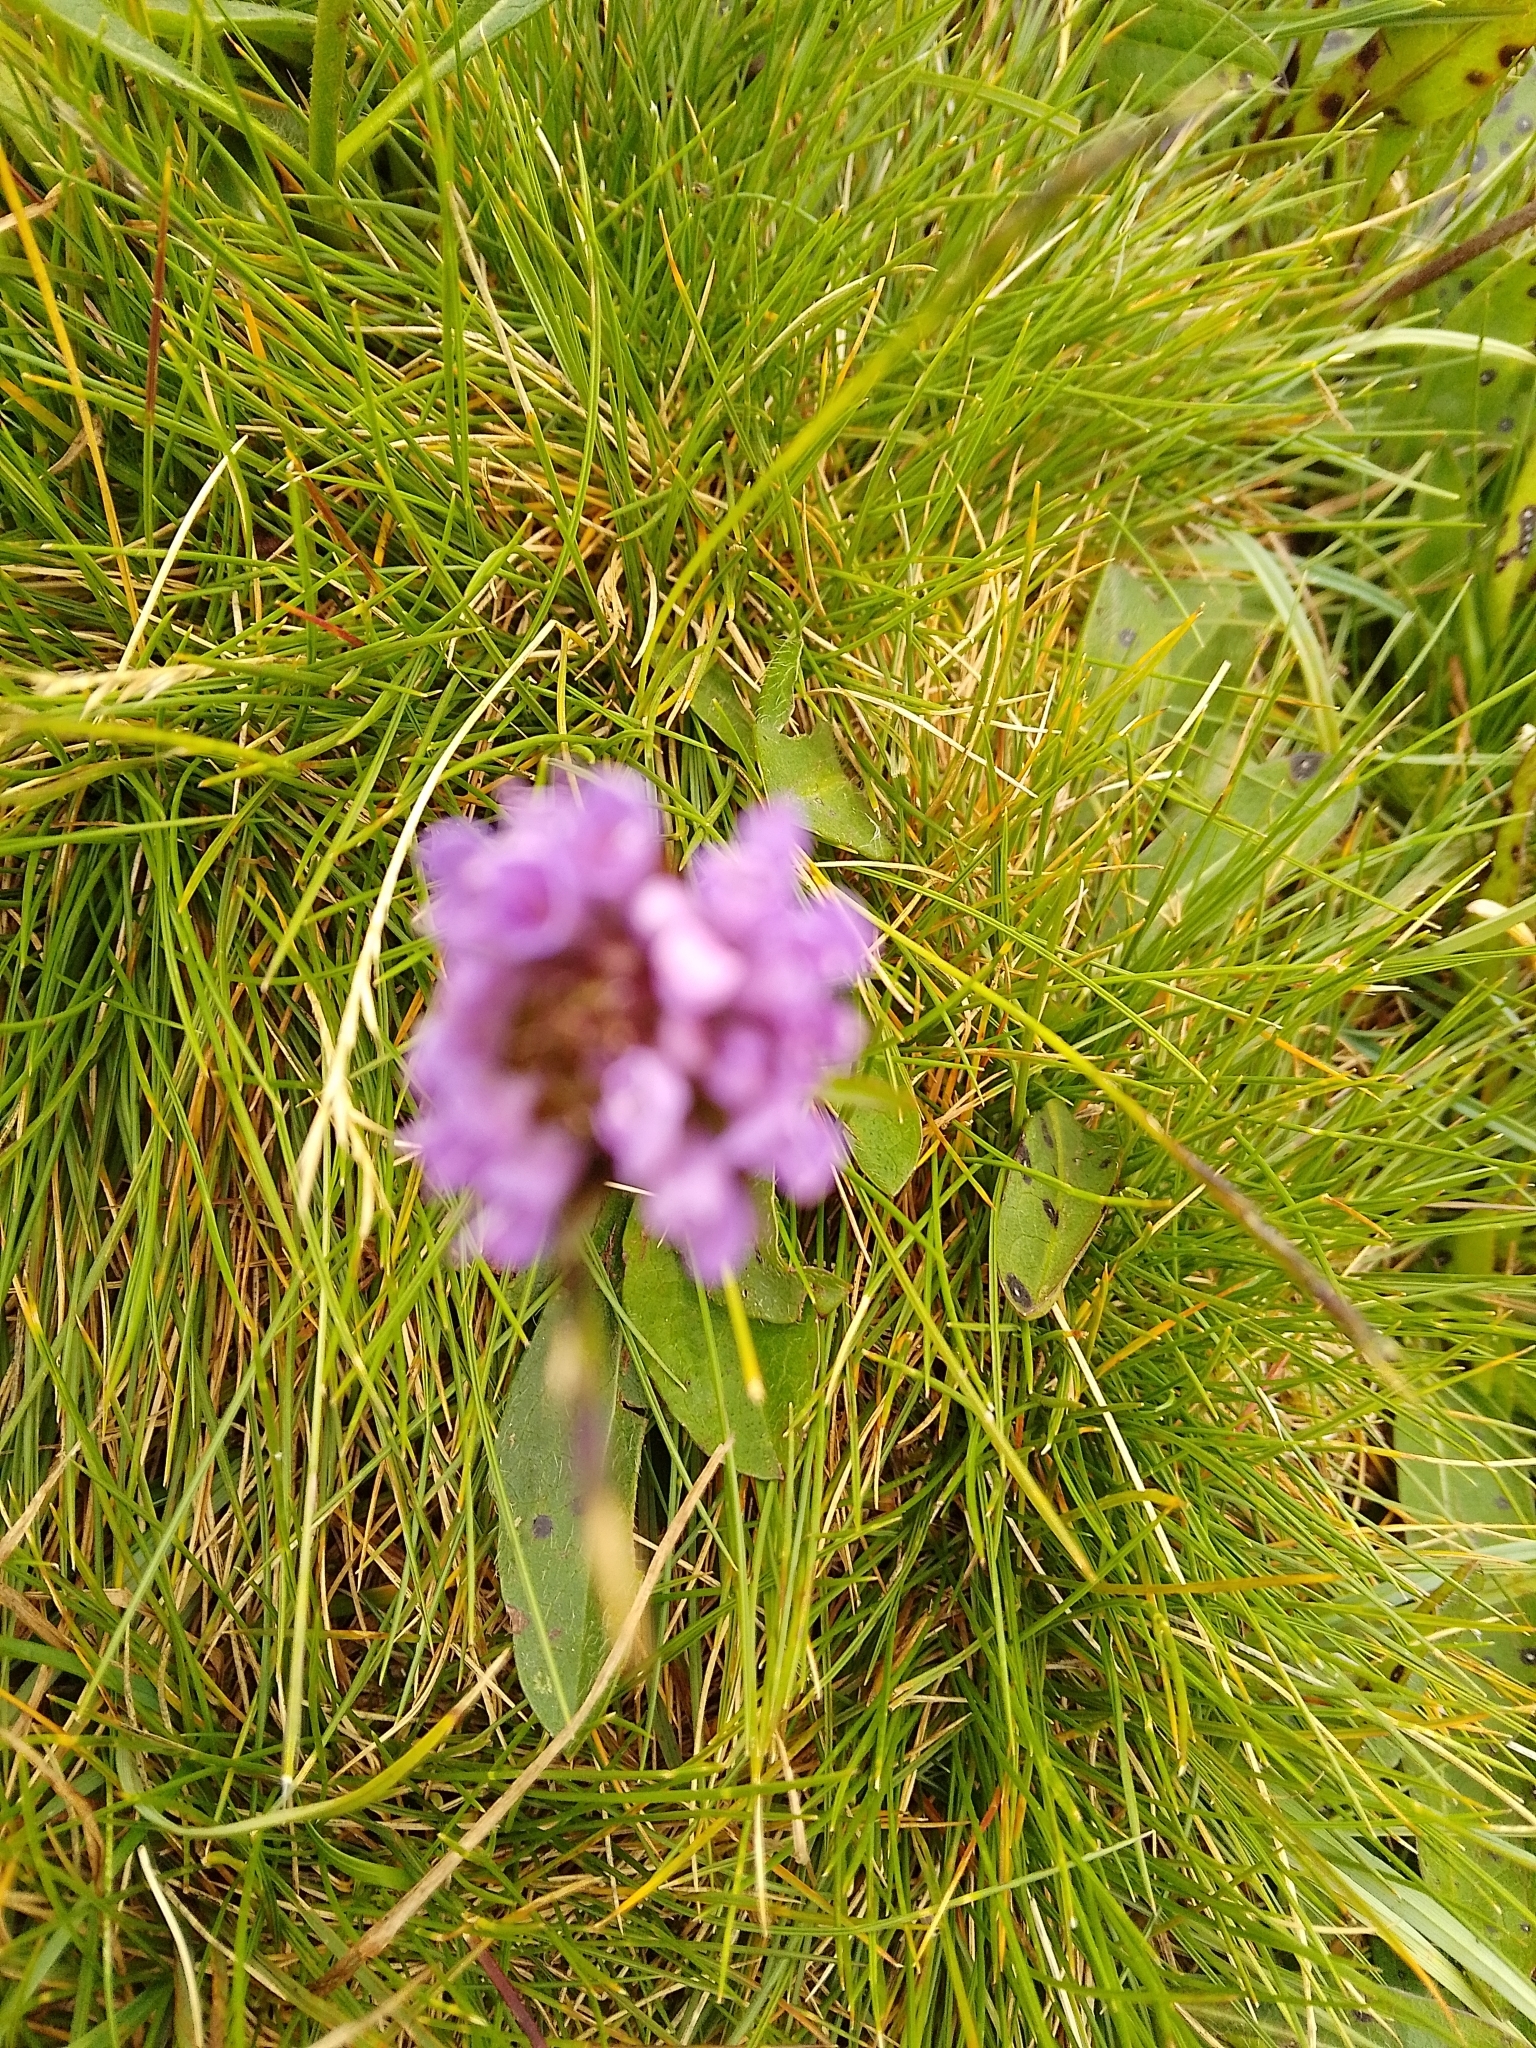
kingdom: Plantae
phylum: Tracheophyta
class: Magnoliopsida
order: Dipsacales
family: Caprifoliaceae
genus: Succisa
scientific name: Succisa pratensis
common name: Devil's-bit
